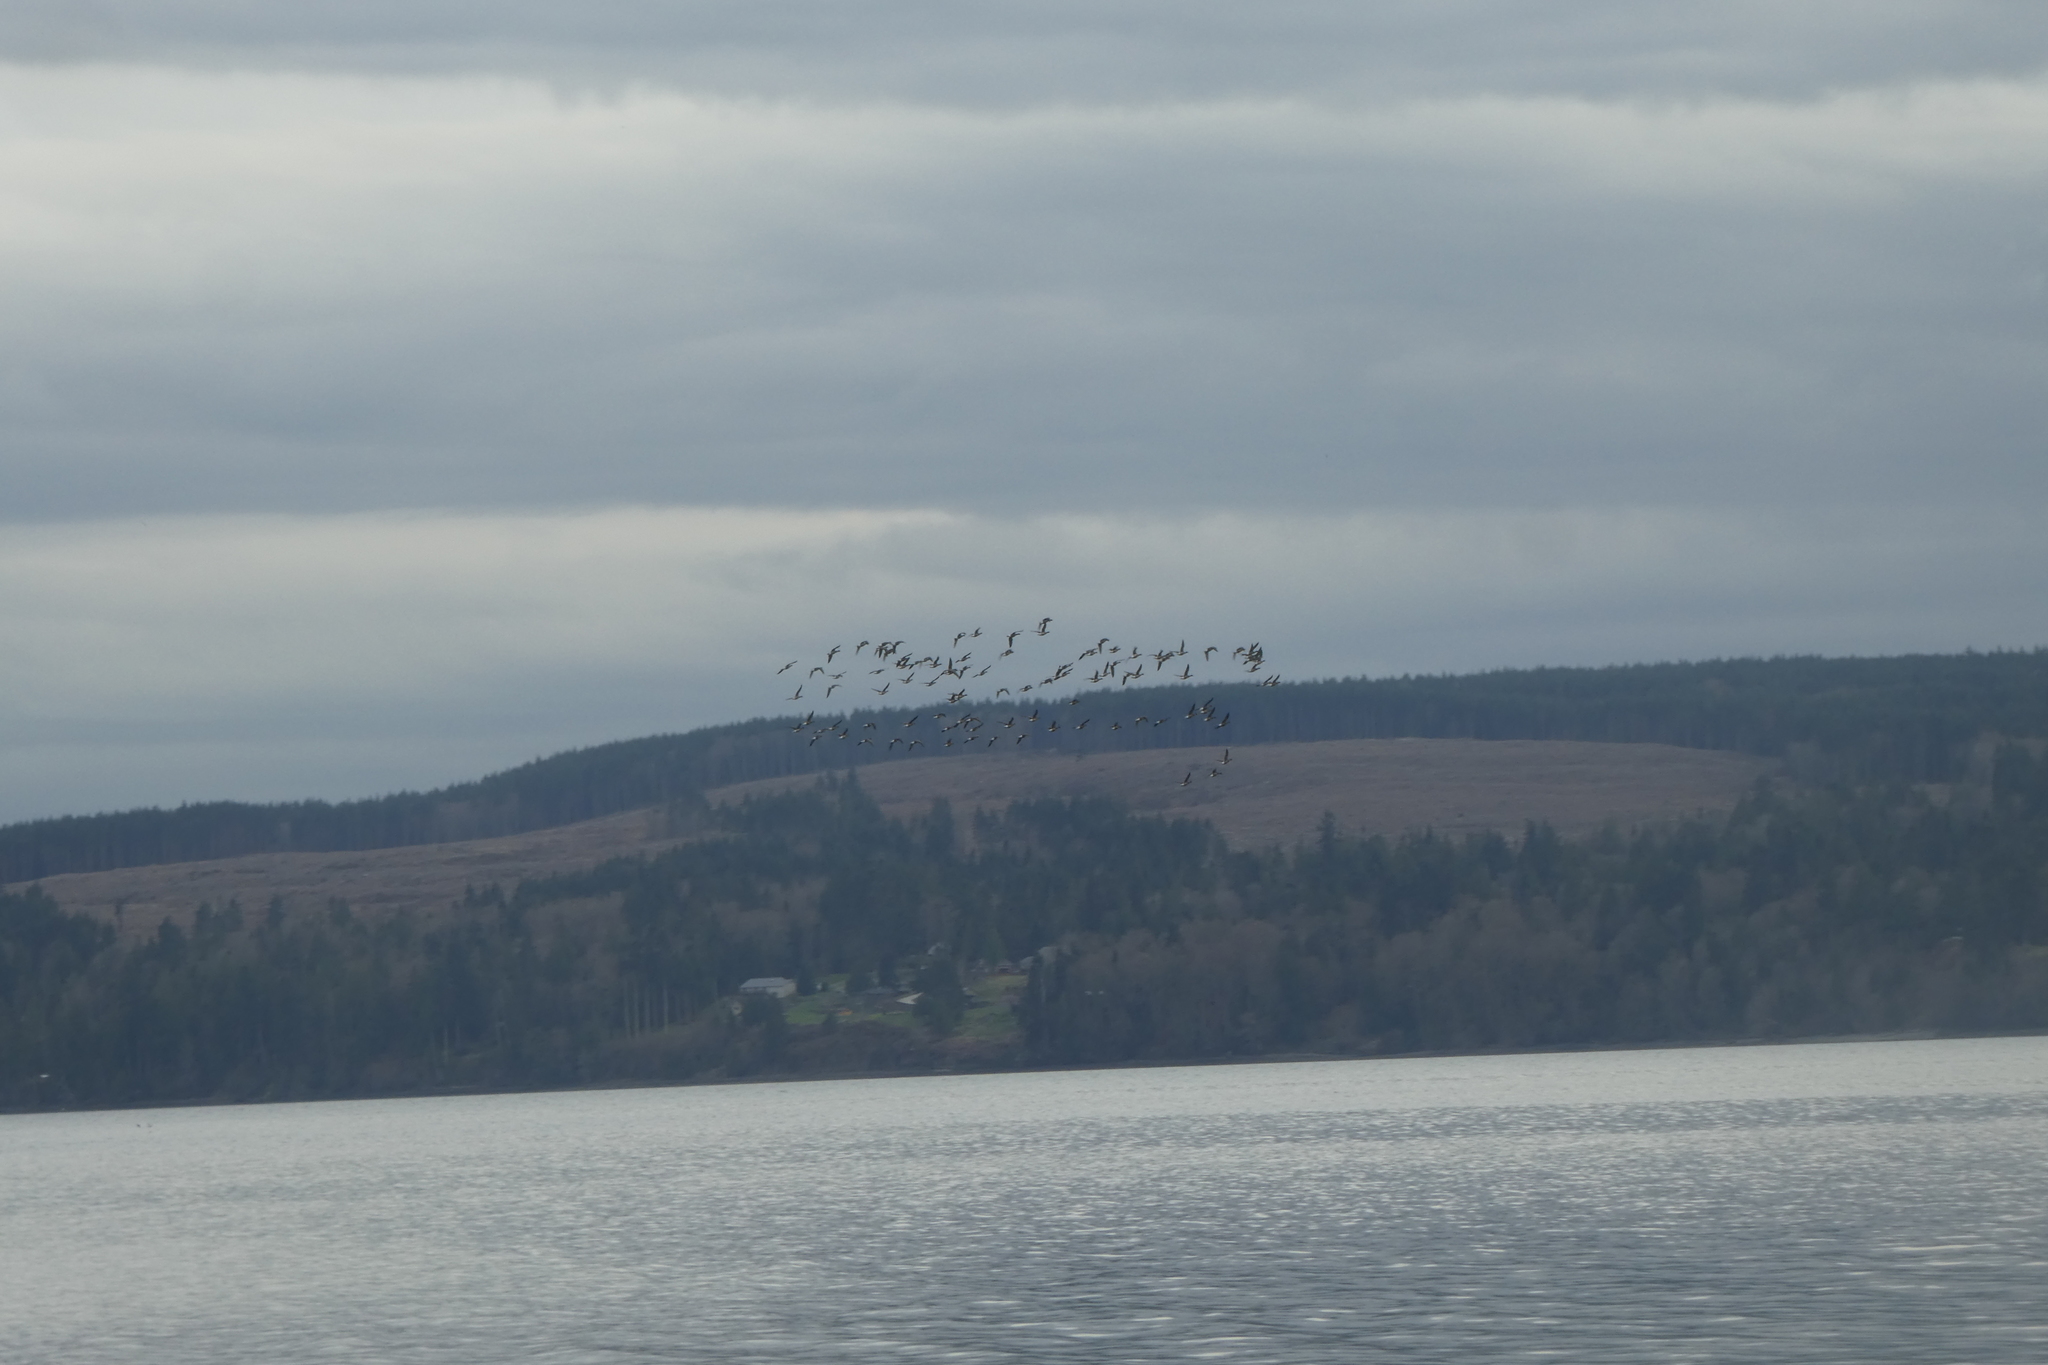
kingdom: Animalia
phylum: Chordata
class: Aves
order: Anseriformes
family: Anatidae
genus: Branta
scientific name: Branta canadensis
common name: Canada goose
